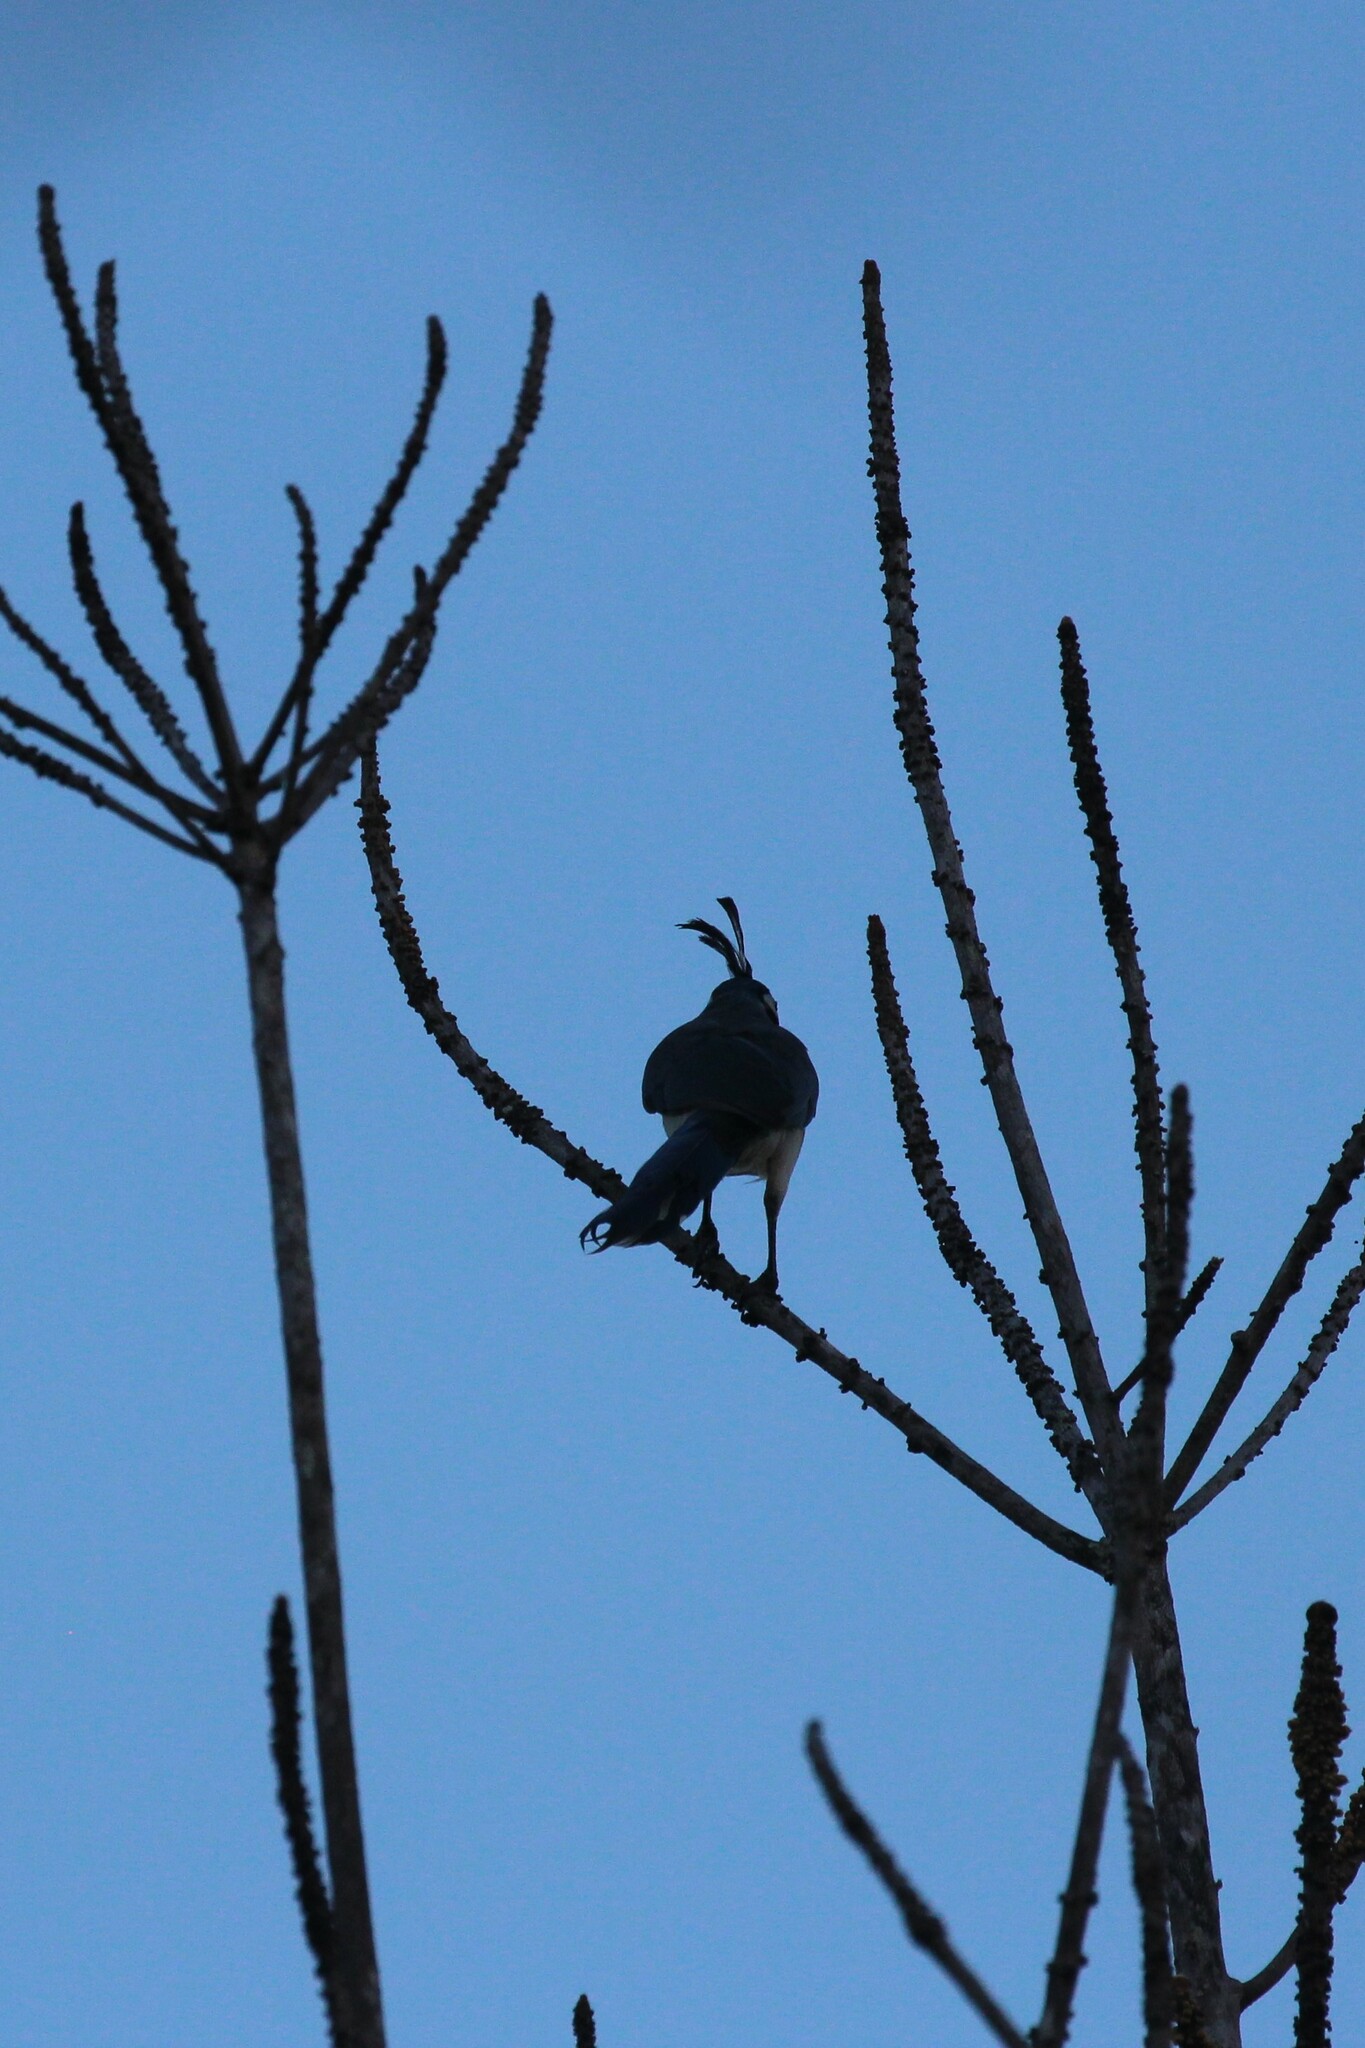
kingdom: Animalia
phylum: Chordata
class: Aves
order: Passeriformes
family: Corvidae
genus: Calocitta
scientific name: Calocitta formosa
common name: White-throated magpie-jay
